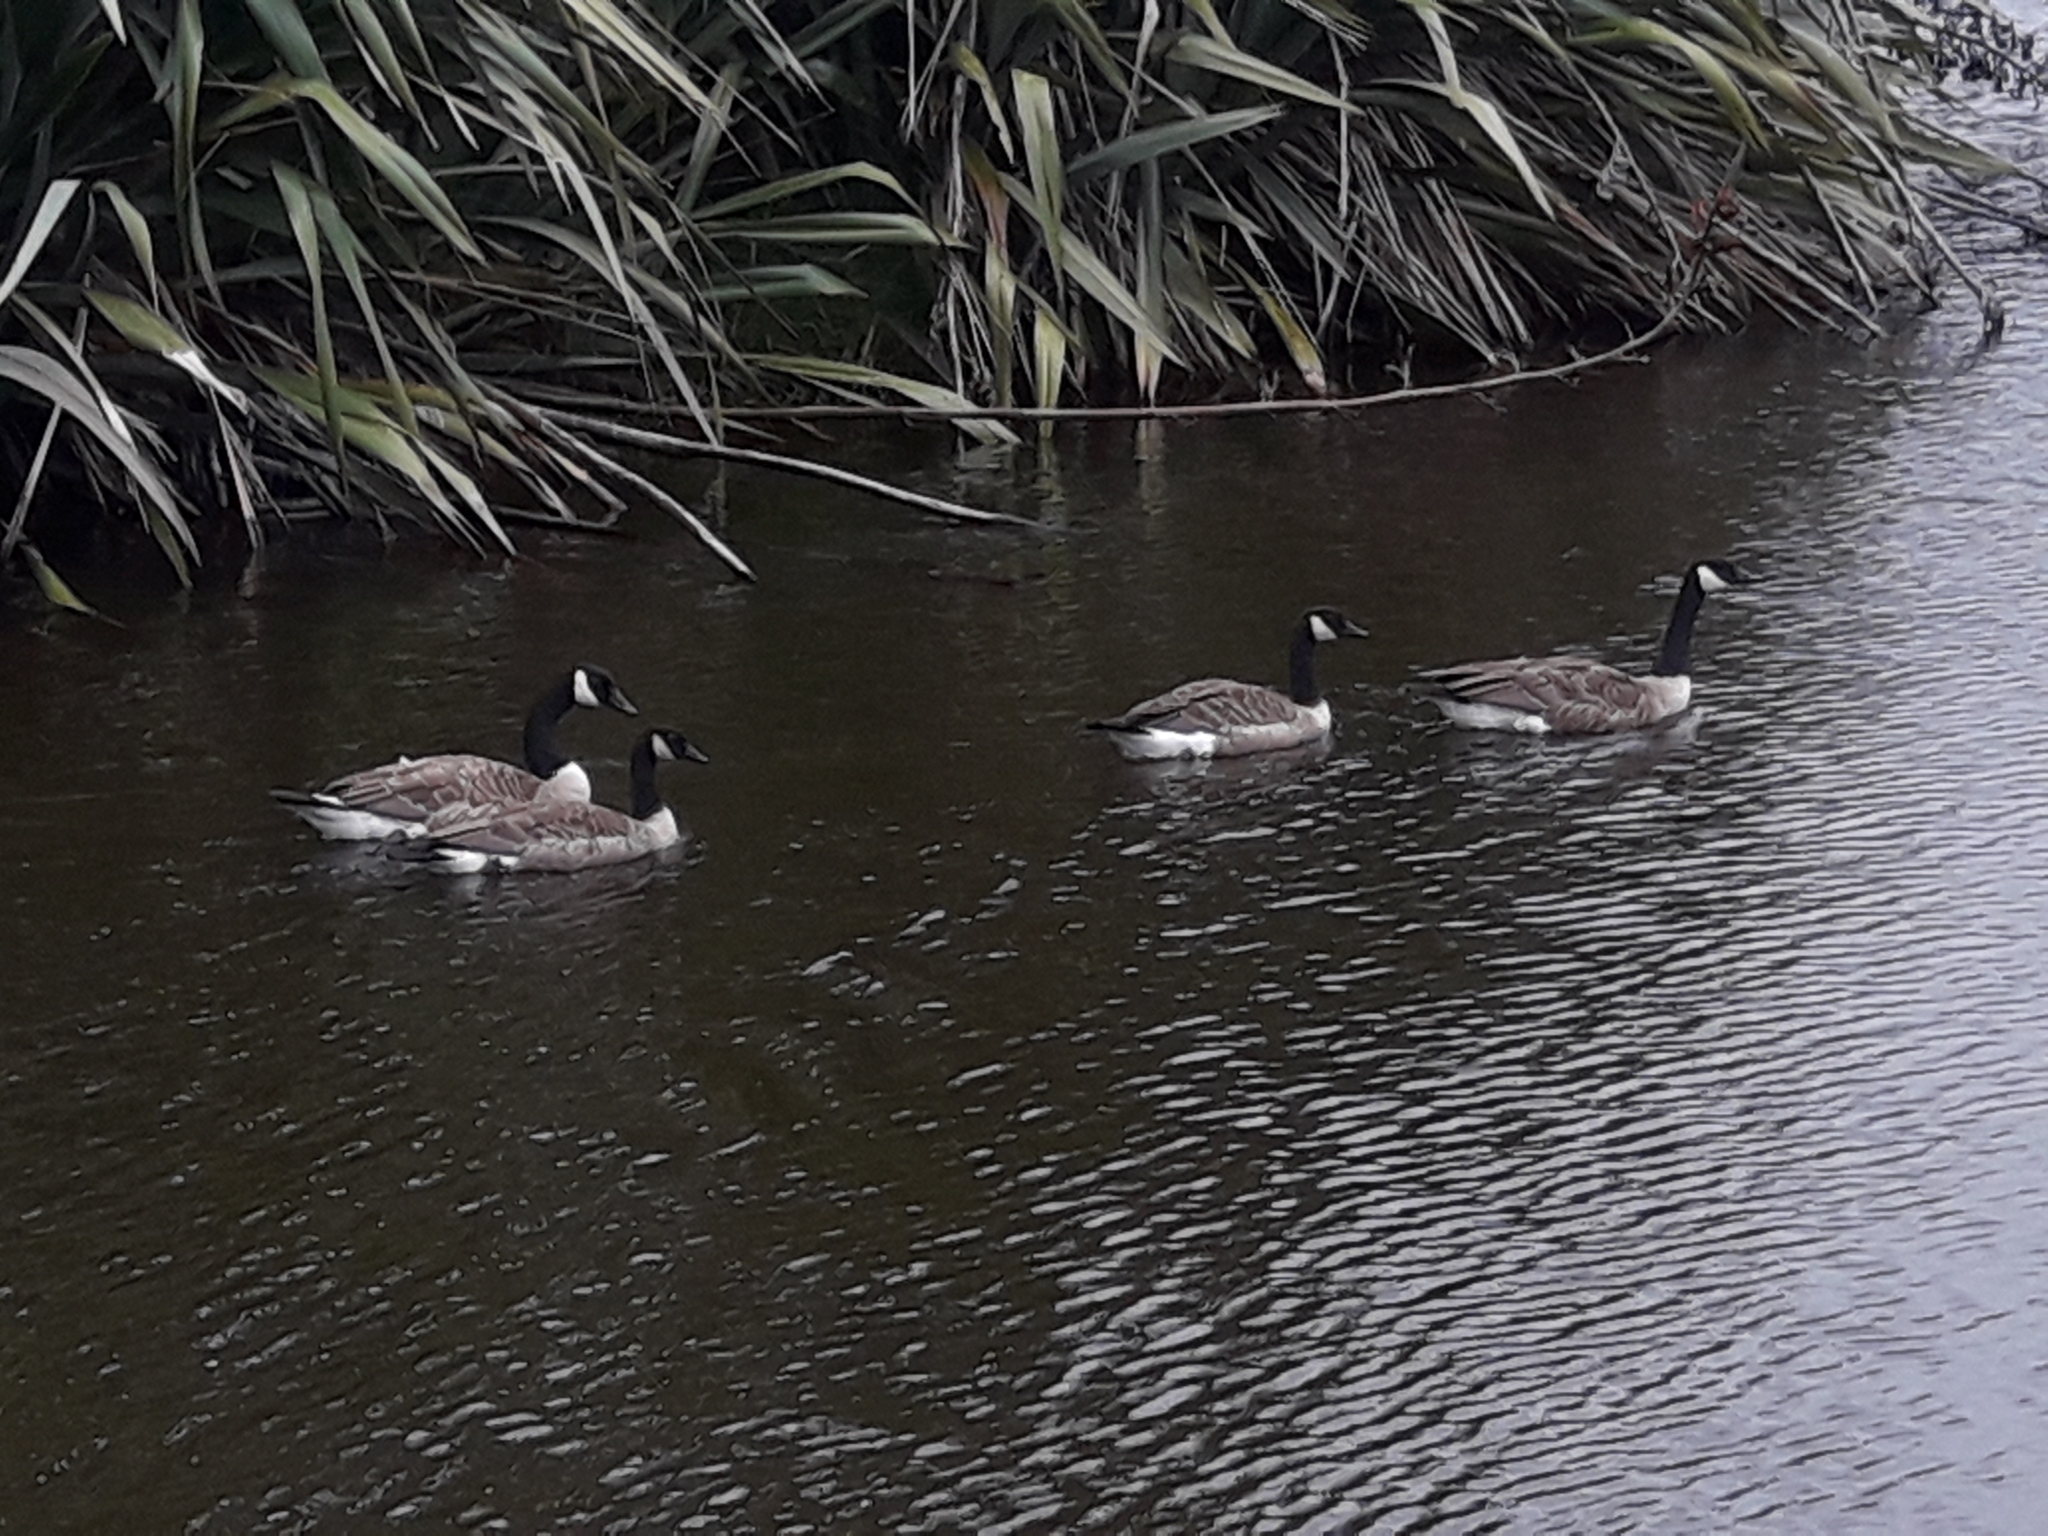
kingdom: Animalia
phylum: Chordata
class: Aves
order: Anseriformes
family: Anatidae
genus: Branta
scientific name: Branta canadensis
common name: Canada goose
